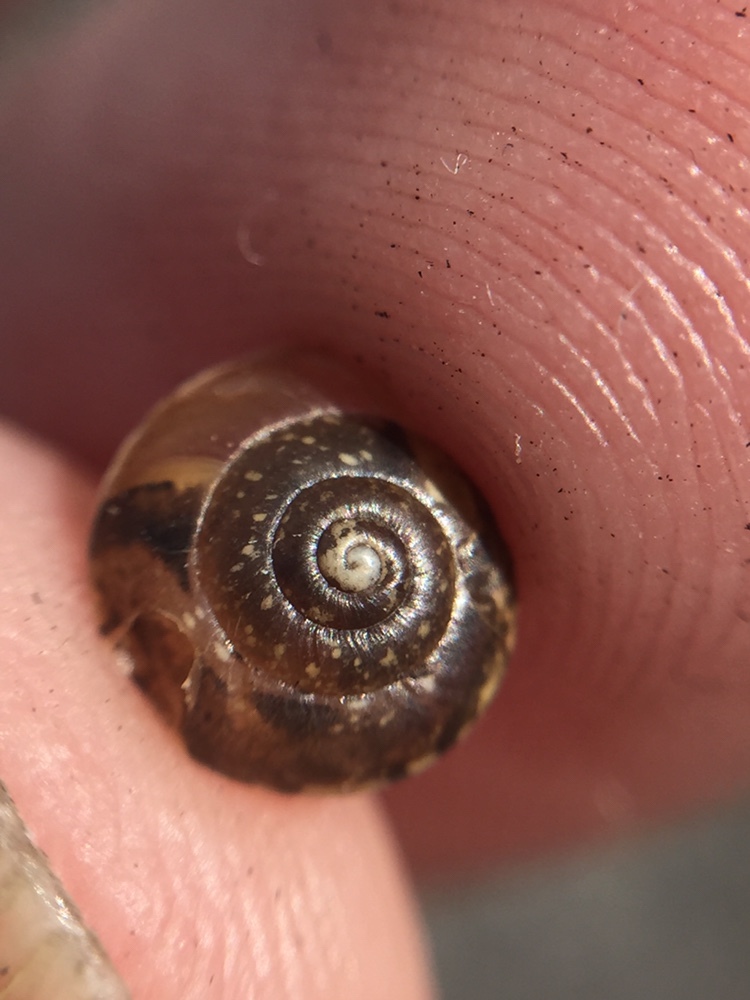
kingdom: Animalia
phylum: Mollusca
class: Gastropoda
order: Stylommatophora
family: Hygromiidae
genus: Hygromia
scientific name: Hygromia cinctella
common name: Girdled snail
